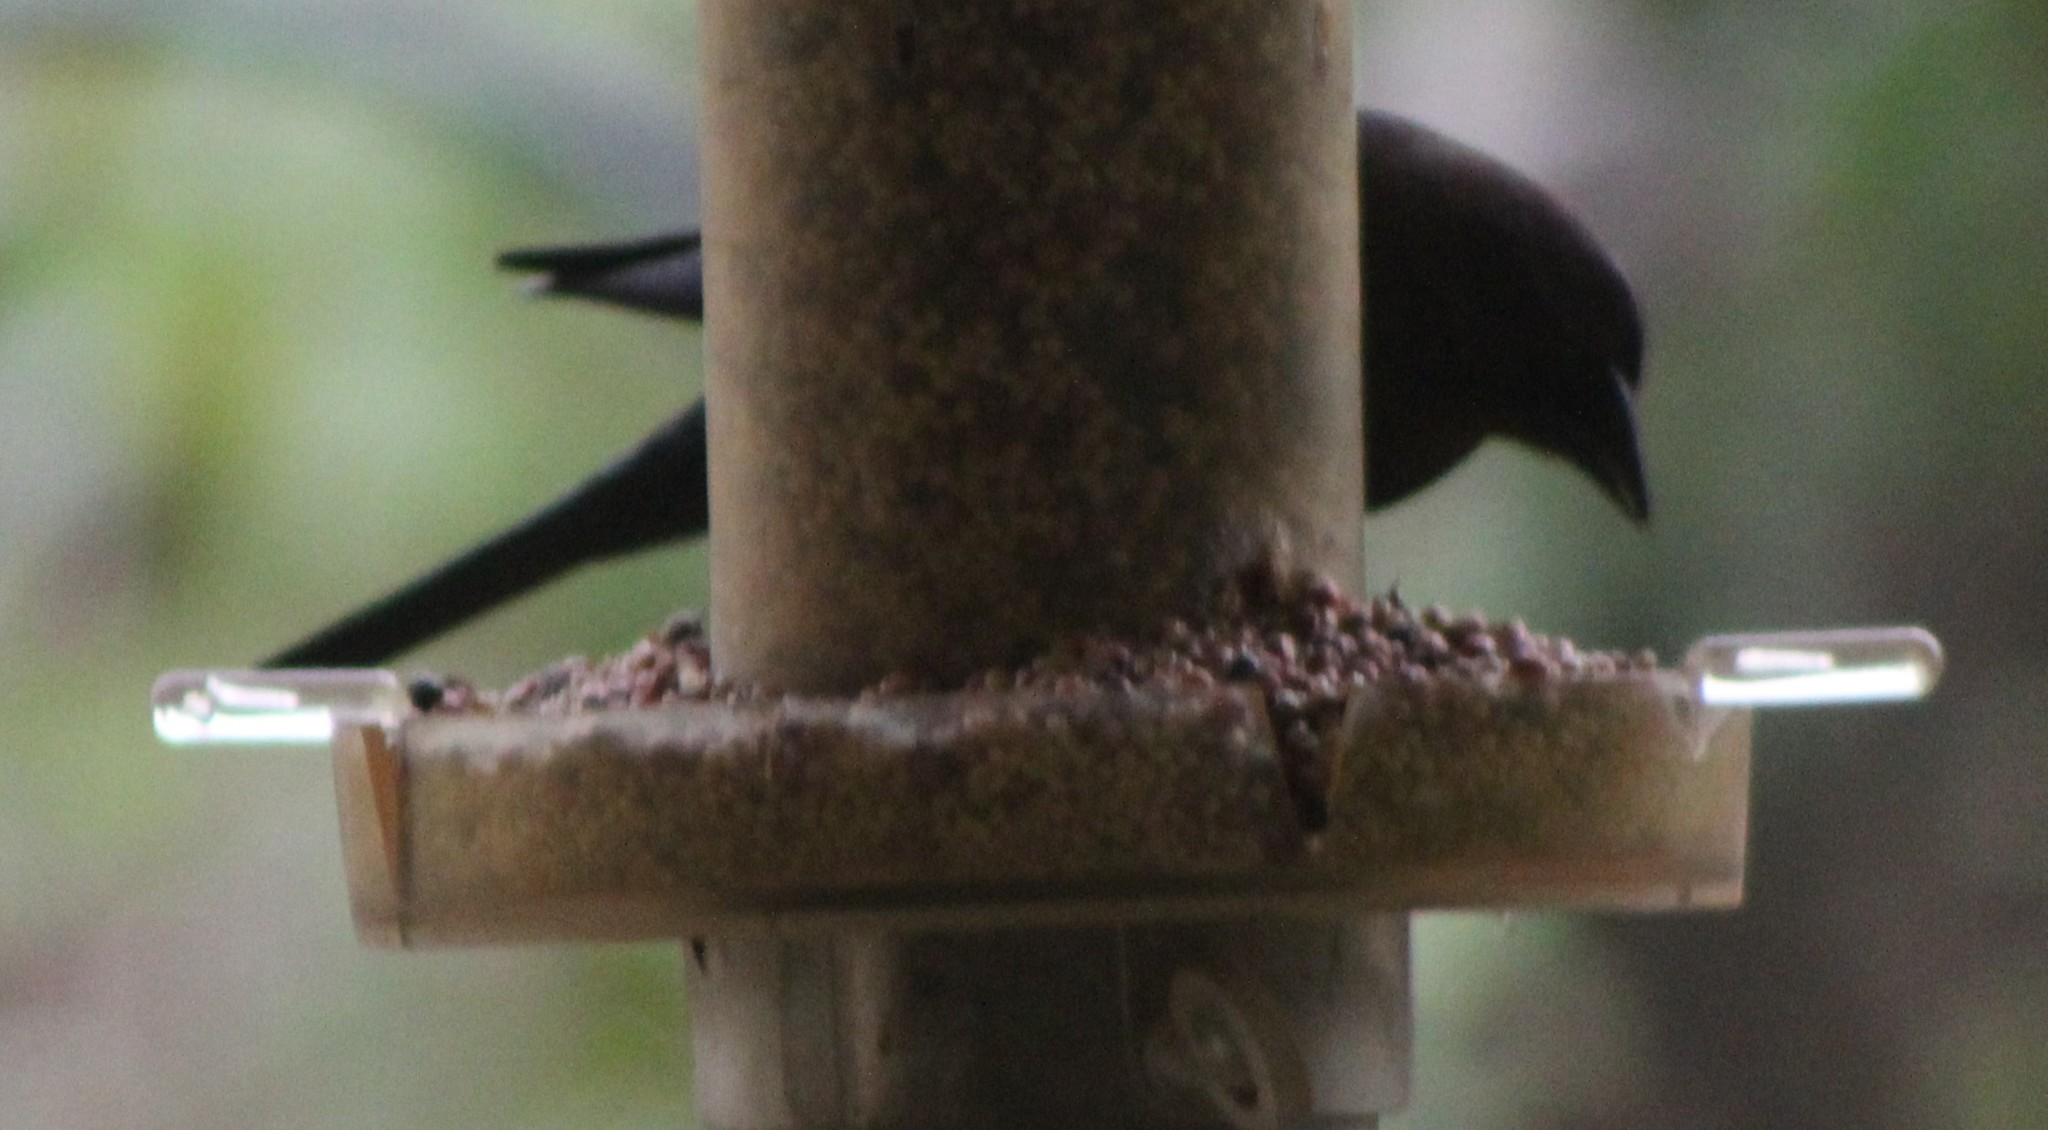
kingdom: Animalia
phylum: Chordata
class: Aves
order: Passeriformes
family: Icteridae
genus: Molothrus
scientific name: Molothrus ater
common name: Brown-headed cowbird
